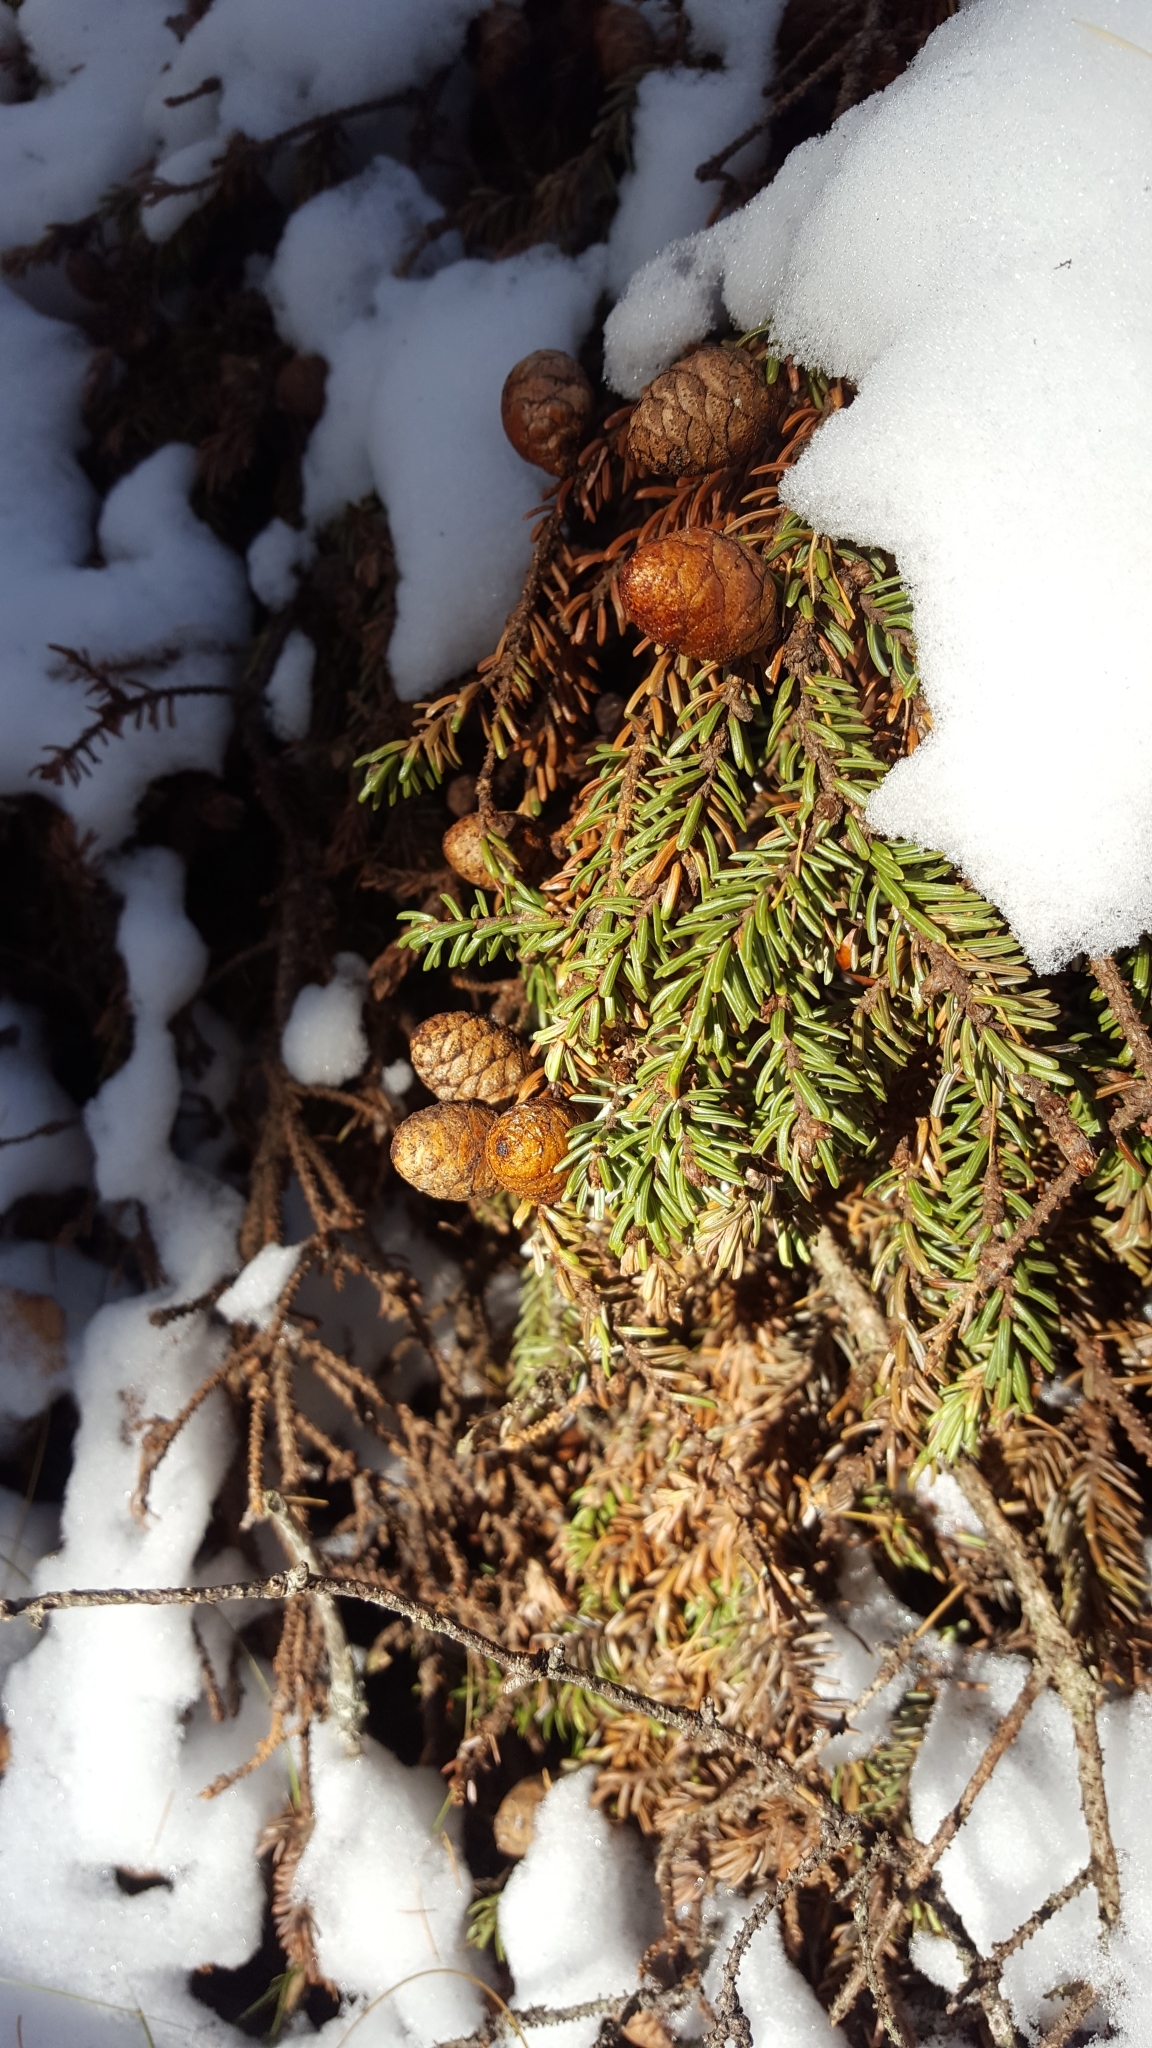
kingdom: Plantae
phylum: Tracheophyta
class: Pinopsida
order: Pinales
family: Pinaceae
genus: Picea
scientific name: Picea mariana
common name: Black spruce
